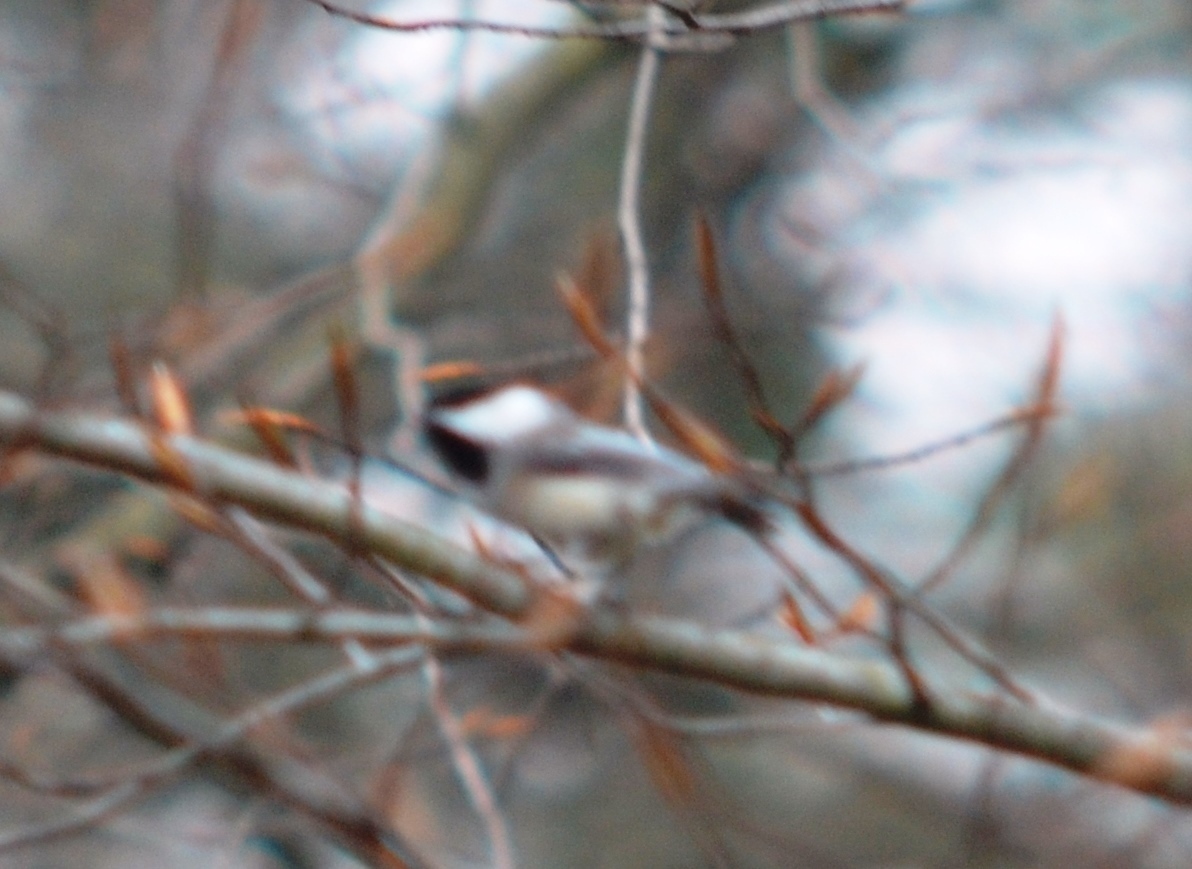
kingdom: Animalia
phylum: Chordata
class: Aves
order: Passeriformes
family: Paridae
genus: Poecile
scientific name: Poecile atricapillus
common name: Black-capped chickadee
